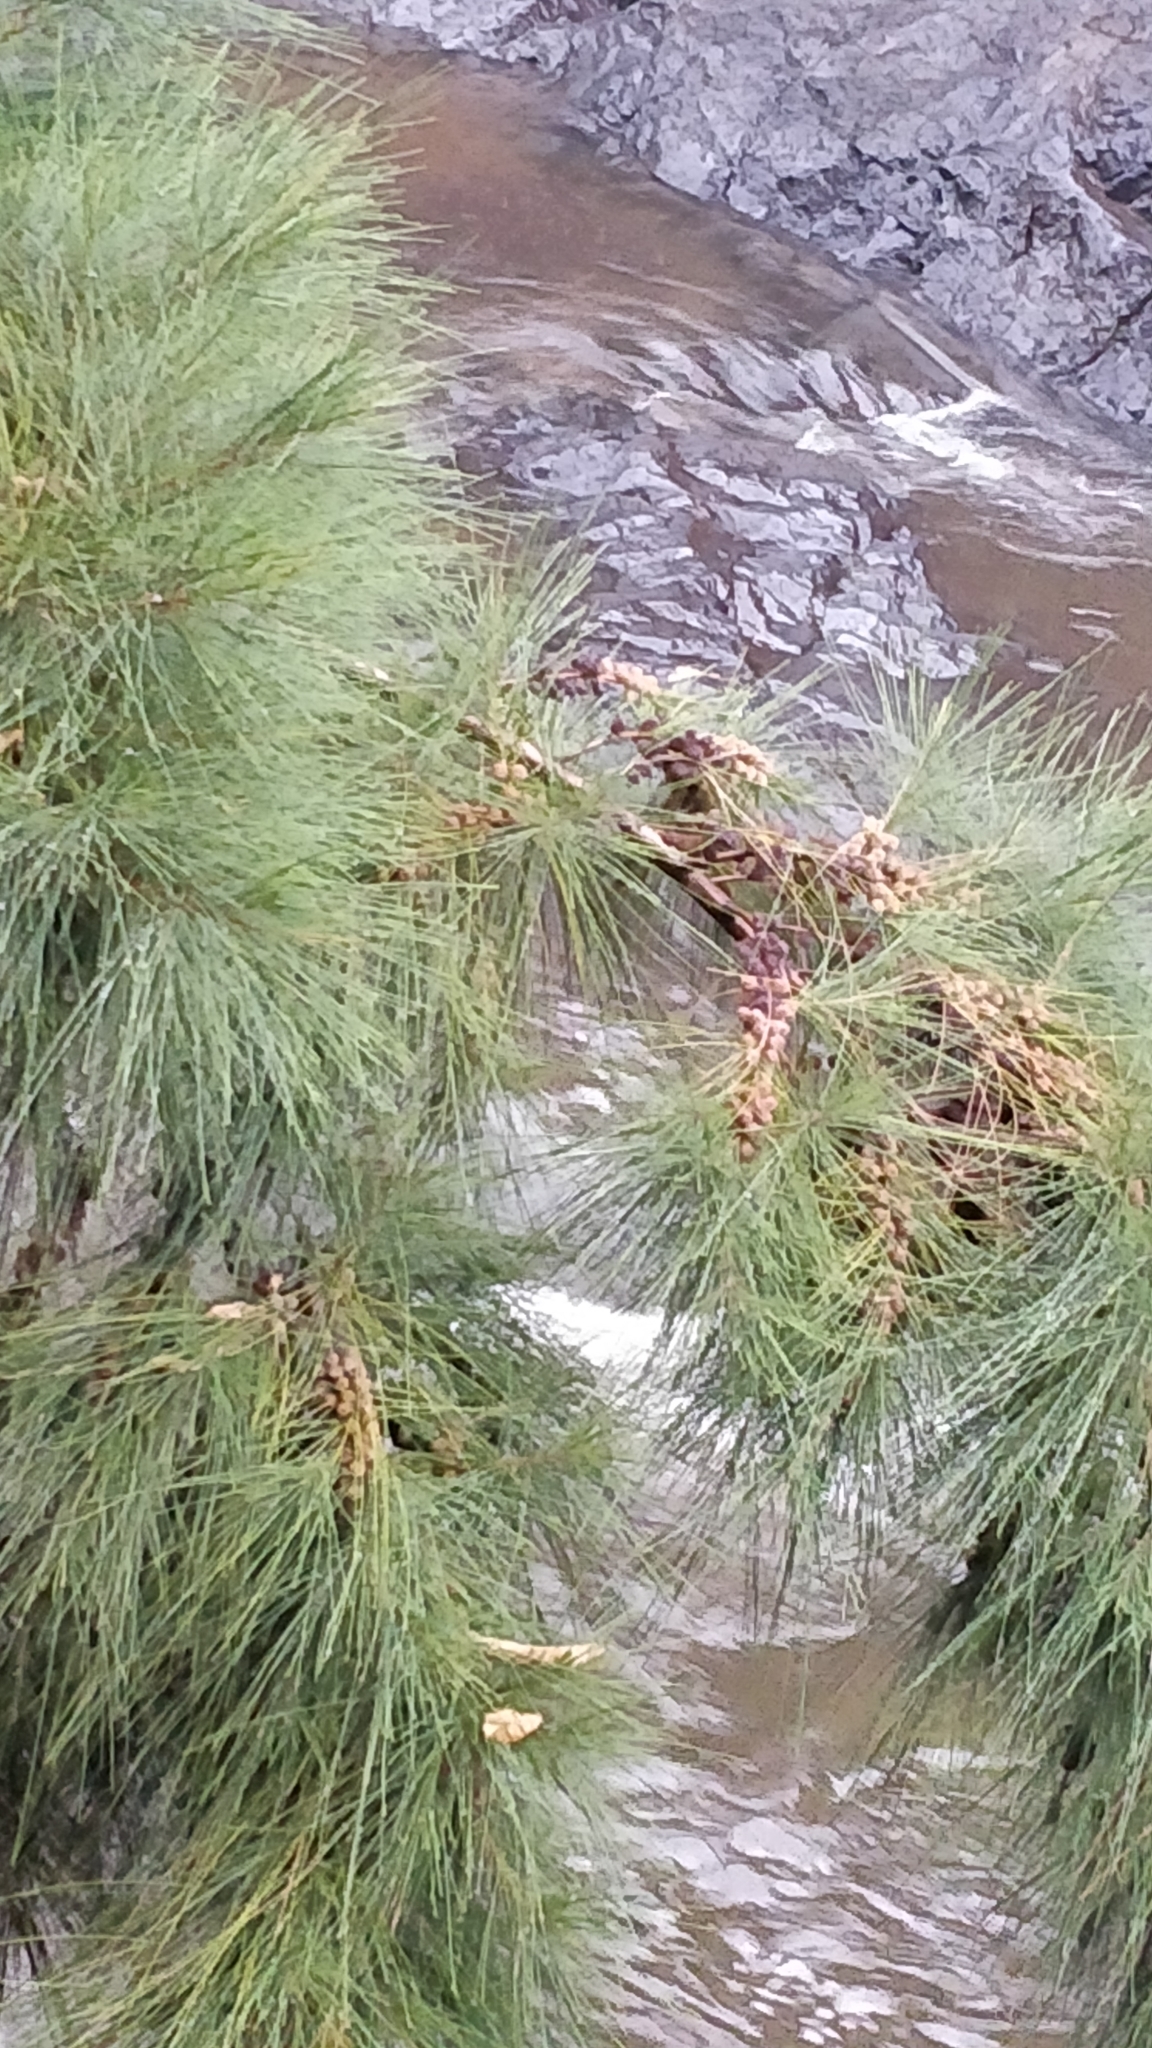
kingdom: Plantae
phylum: Tracheophyta
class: Magnoliopsida
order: Fagales
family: Casuarinaceae
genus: Casuarina
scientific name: Casuarina equisetifolia
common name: Beach sheoak
